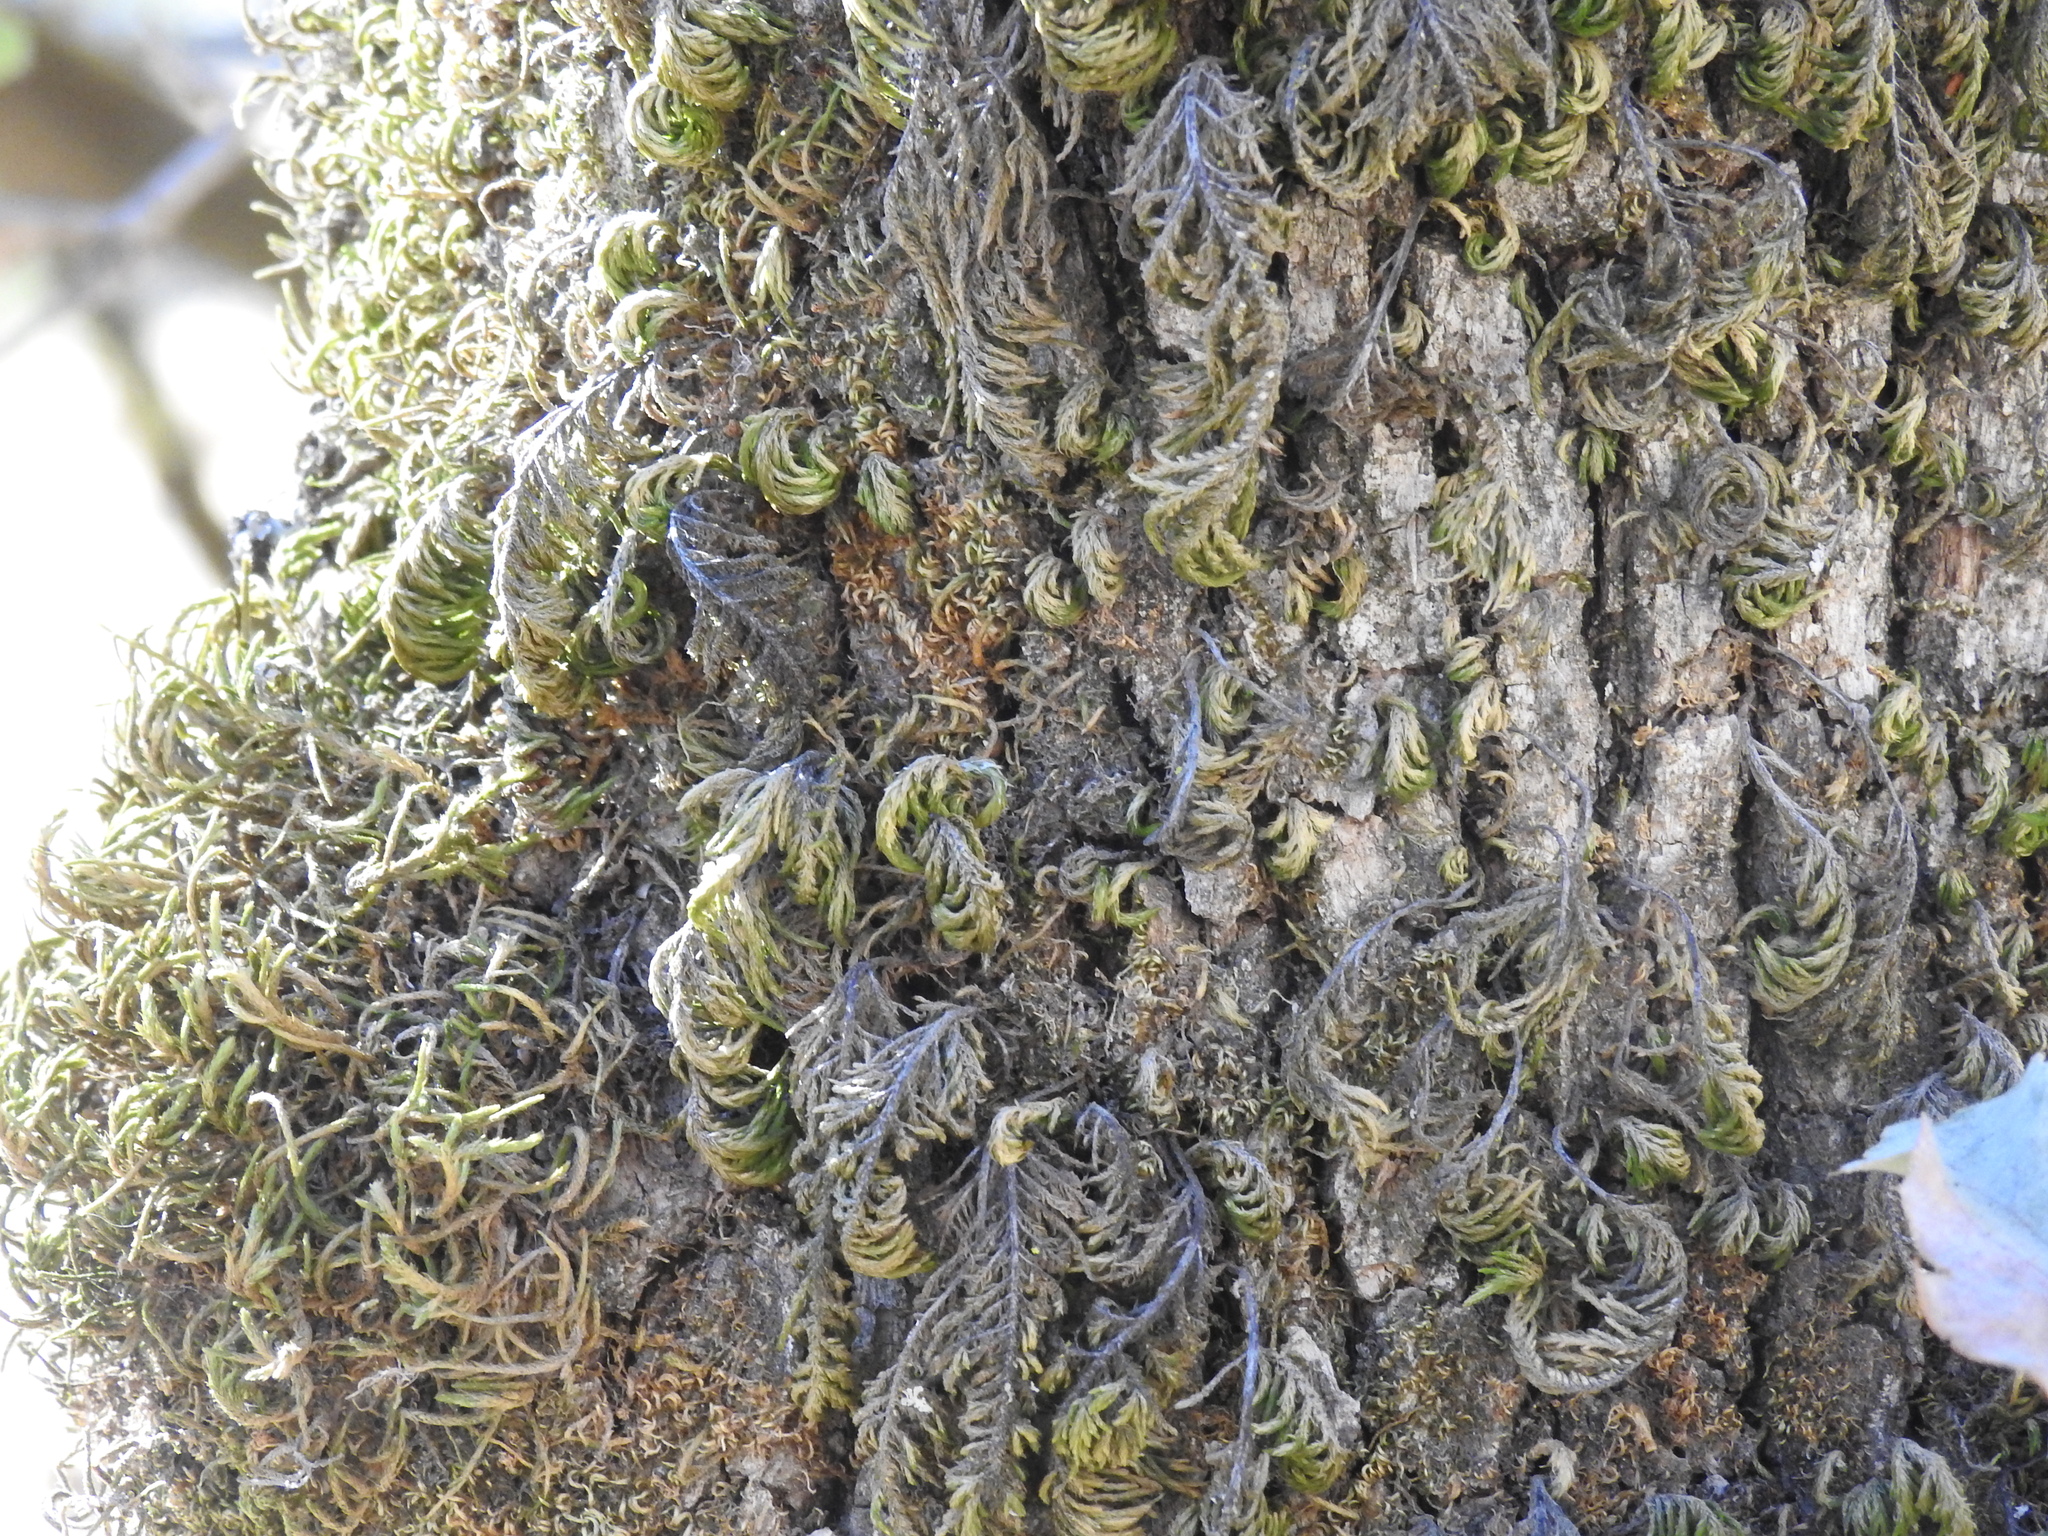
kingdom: Plantae
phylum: Bryophyta
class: Bryopsida
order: Hypnales
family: Cryphaeaceae
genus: Dendroalsia
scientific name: Dendroalsia abietina
